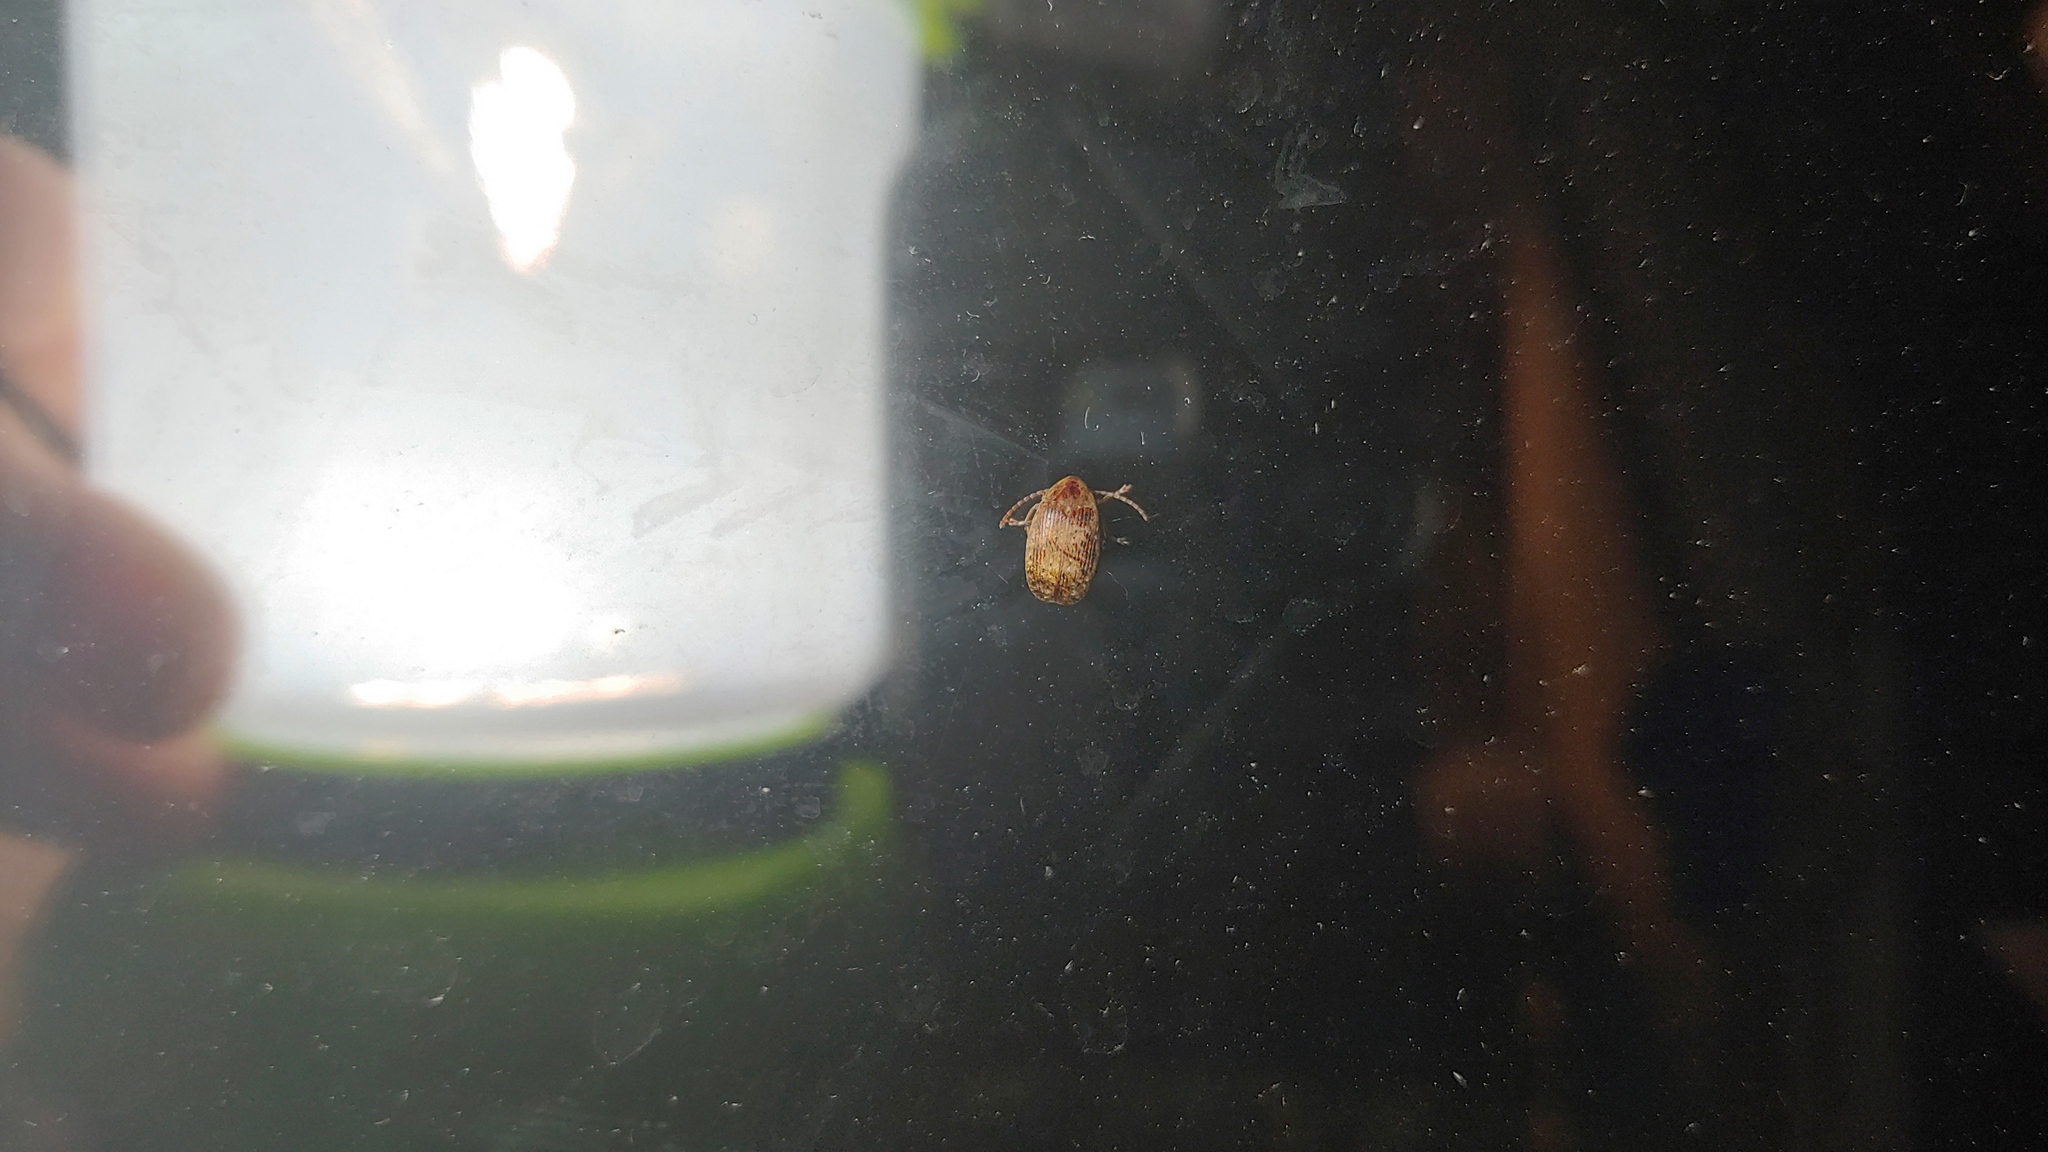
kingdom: Animalia
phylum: Arthropoda
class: Insecta
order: Coleoptera
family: Chrysomelidae
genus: Amblycerus
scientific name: Amblycerus robiniae
